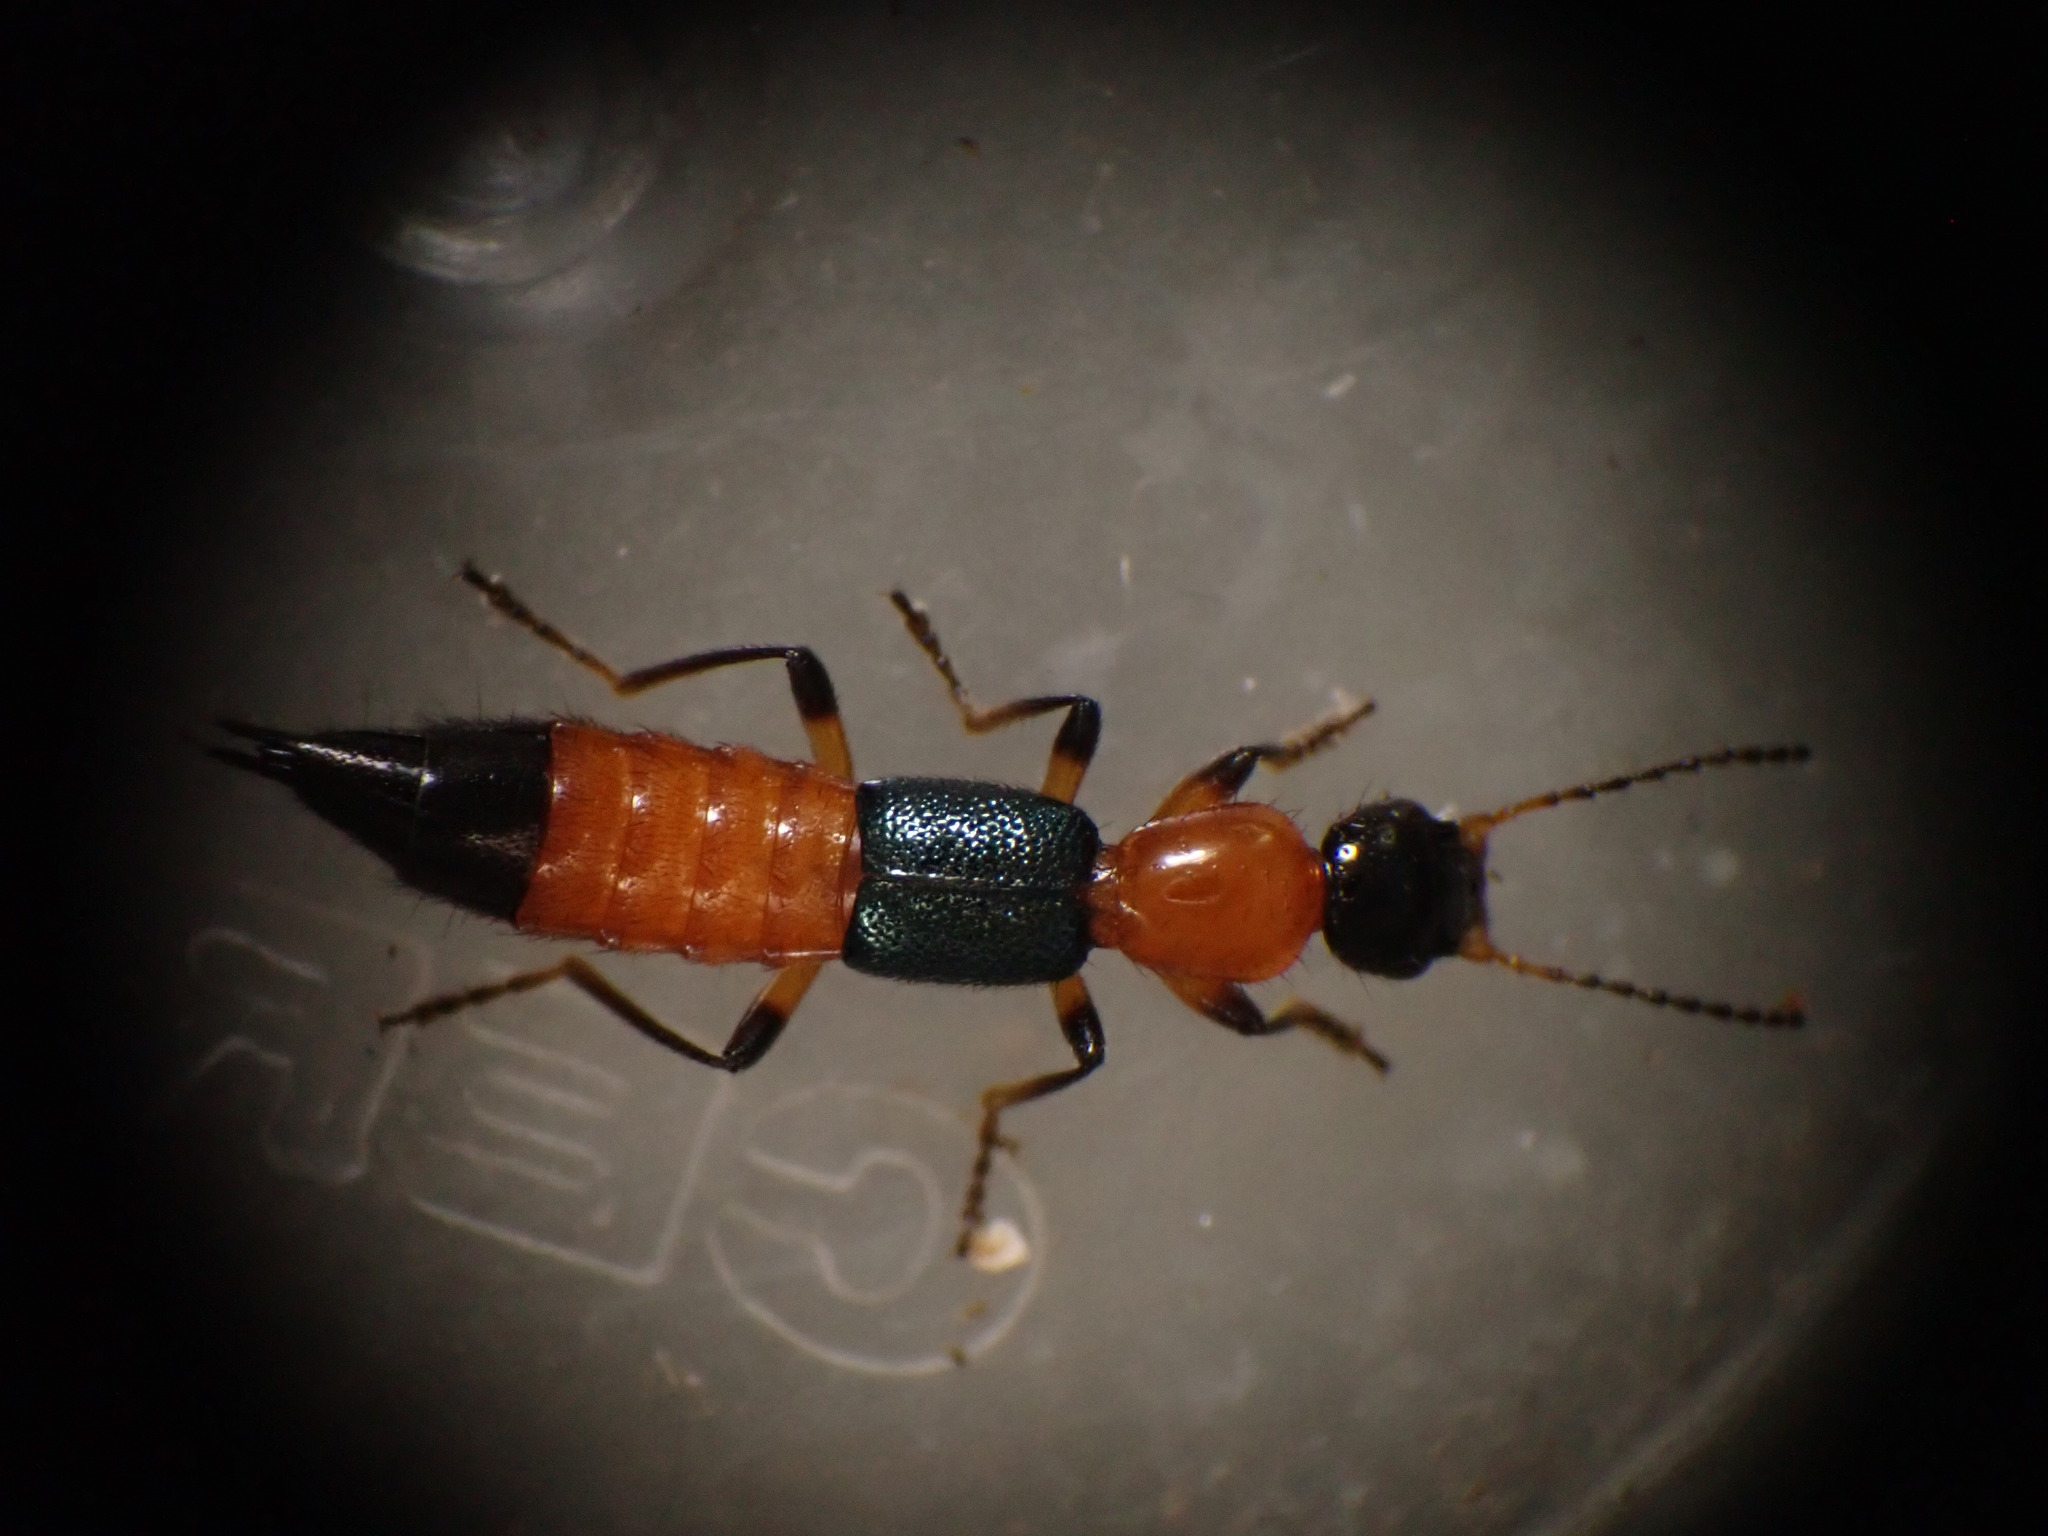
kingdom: Animalia
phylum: Arthropoda
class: Insecta
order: Coleoptera
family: Staphylinidae
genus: Paederus
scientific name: Paederus riparius
